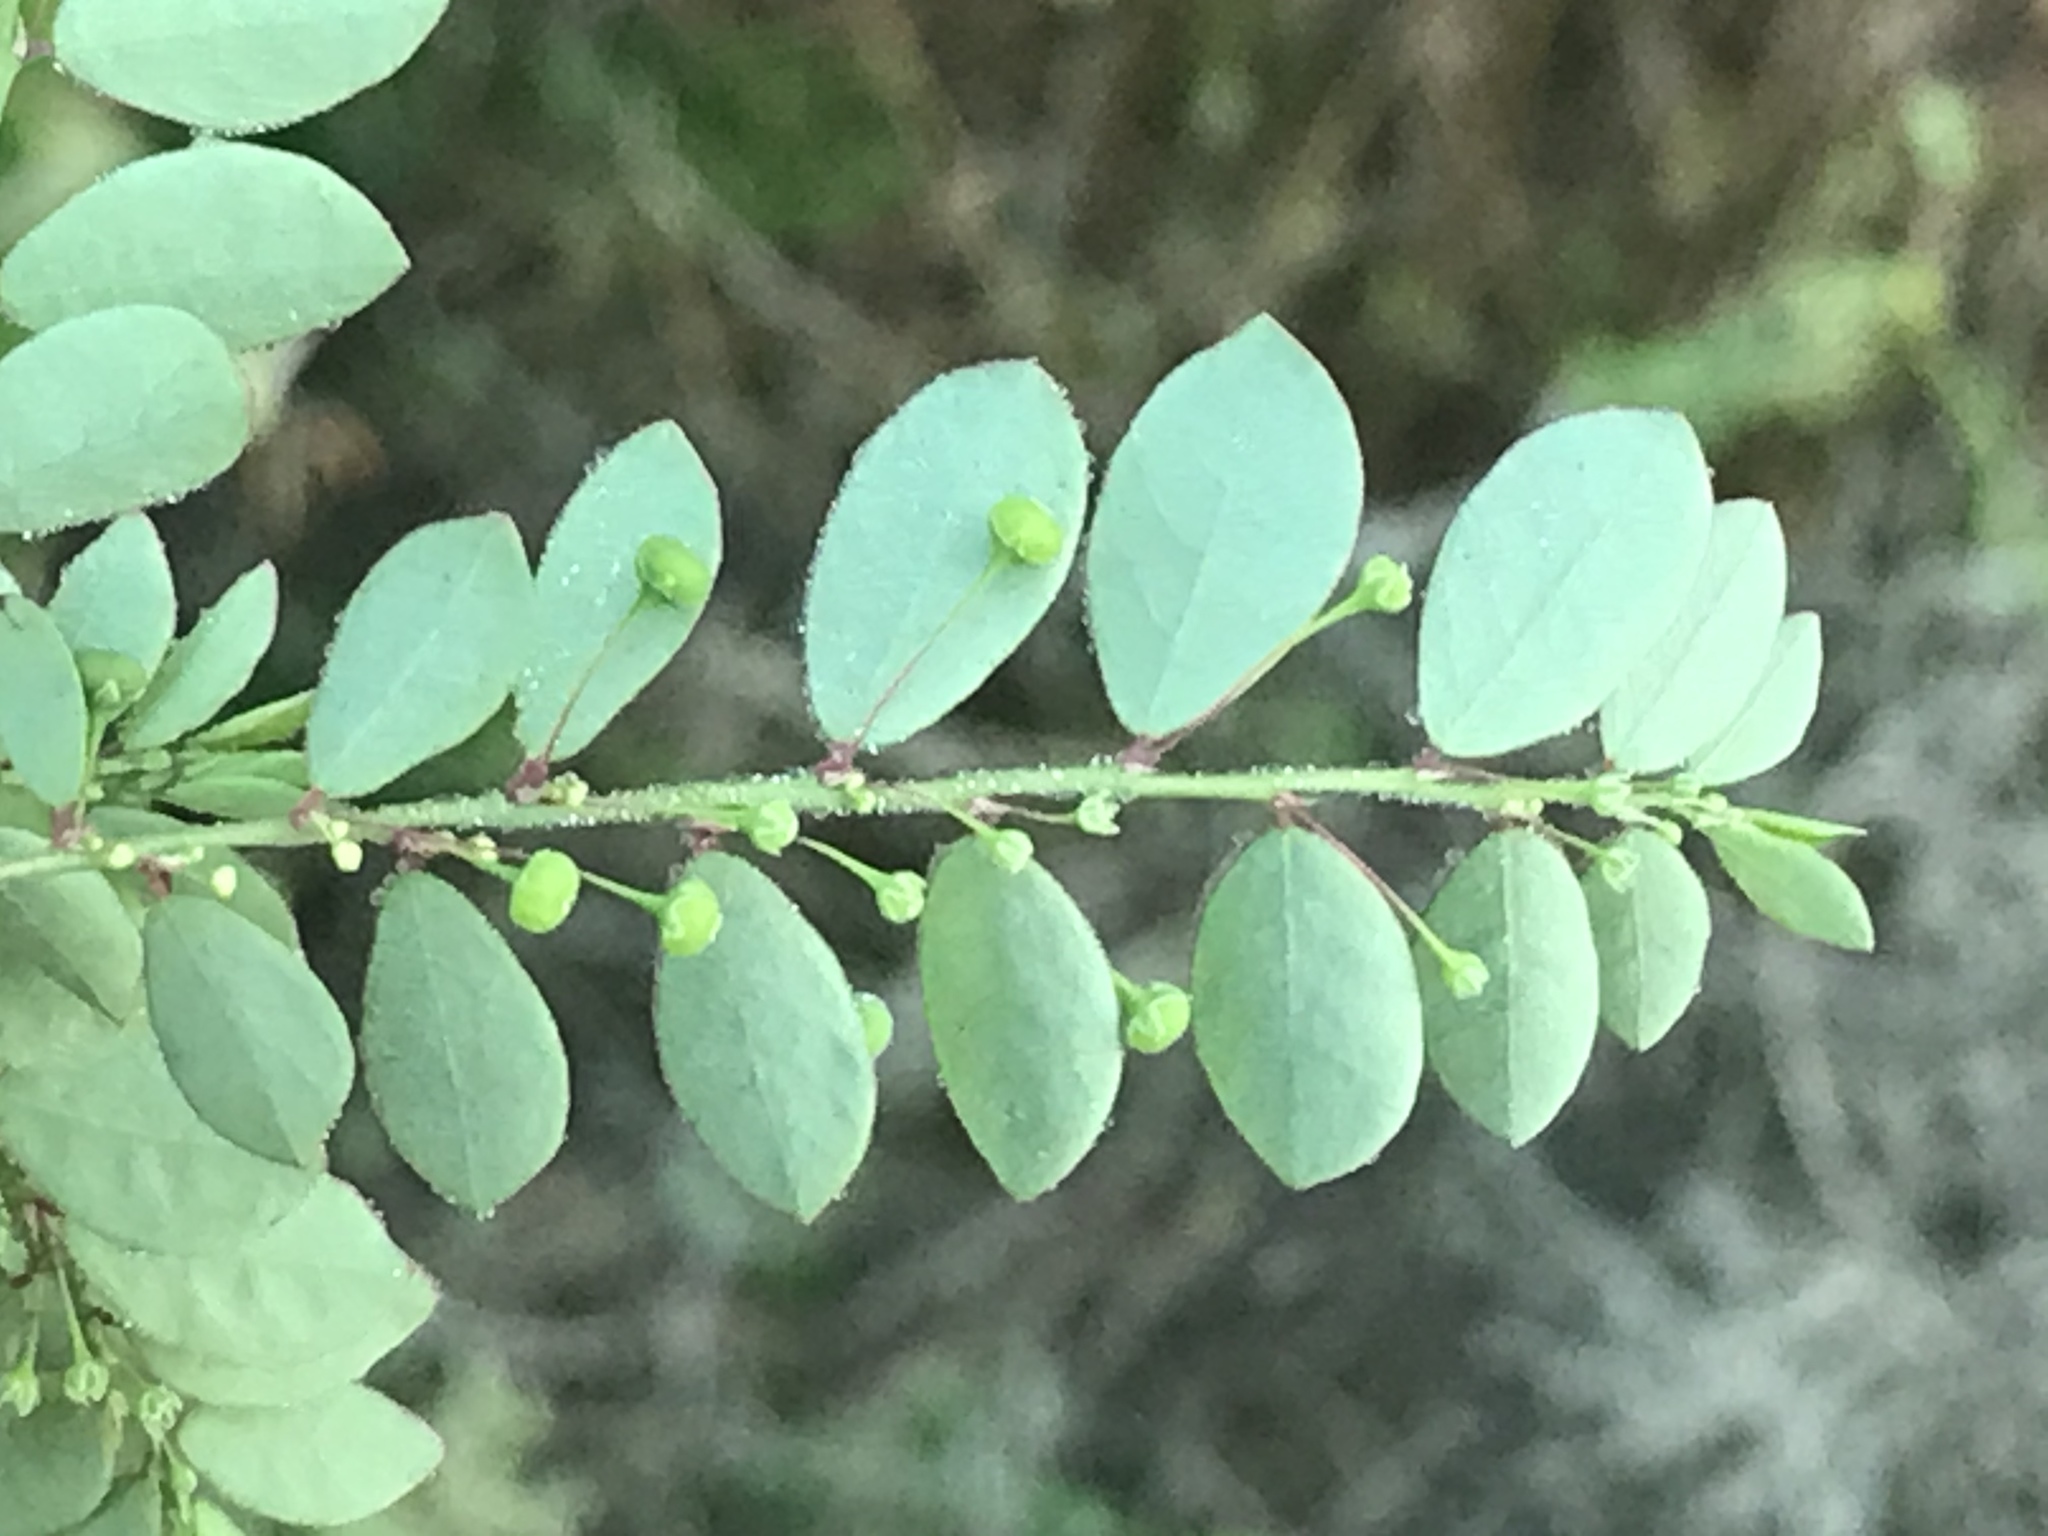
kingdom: Plantae
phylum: Tracheophyta
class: Magnoliopsida
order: Malpighiales
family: Phyllanthaceae
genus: Phyllanthus
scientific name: Phyllanthus tenellus
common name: Mascarene island leaf-flower
